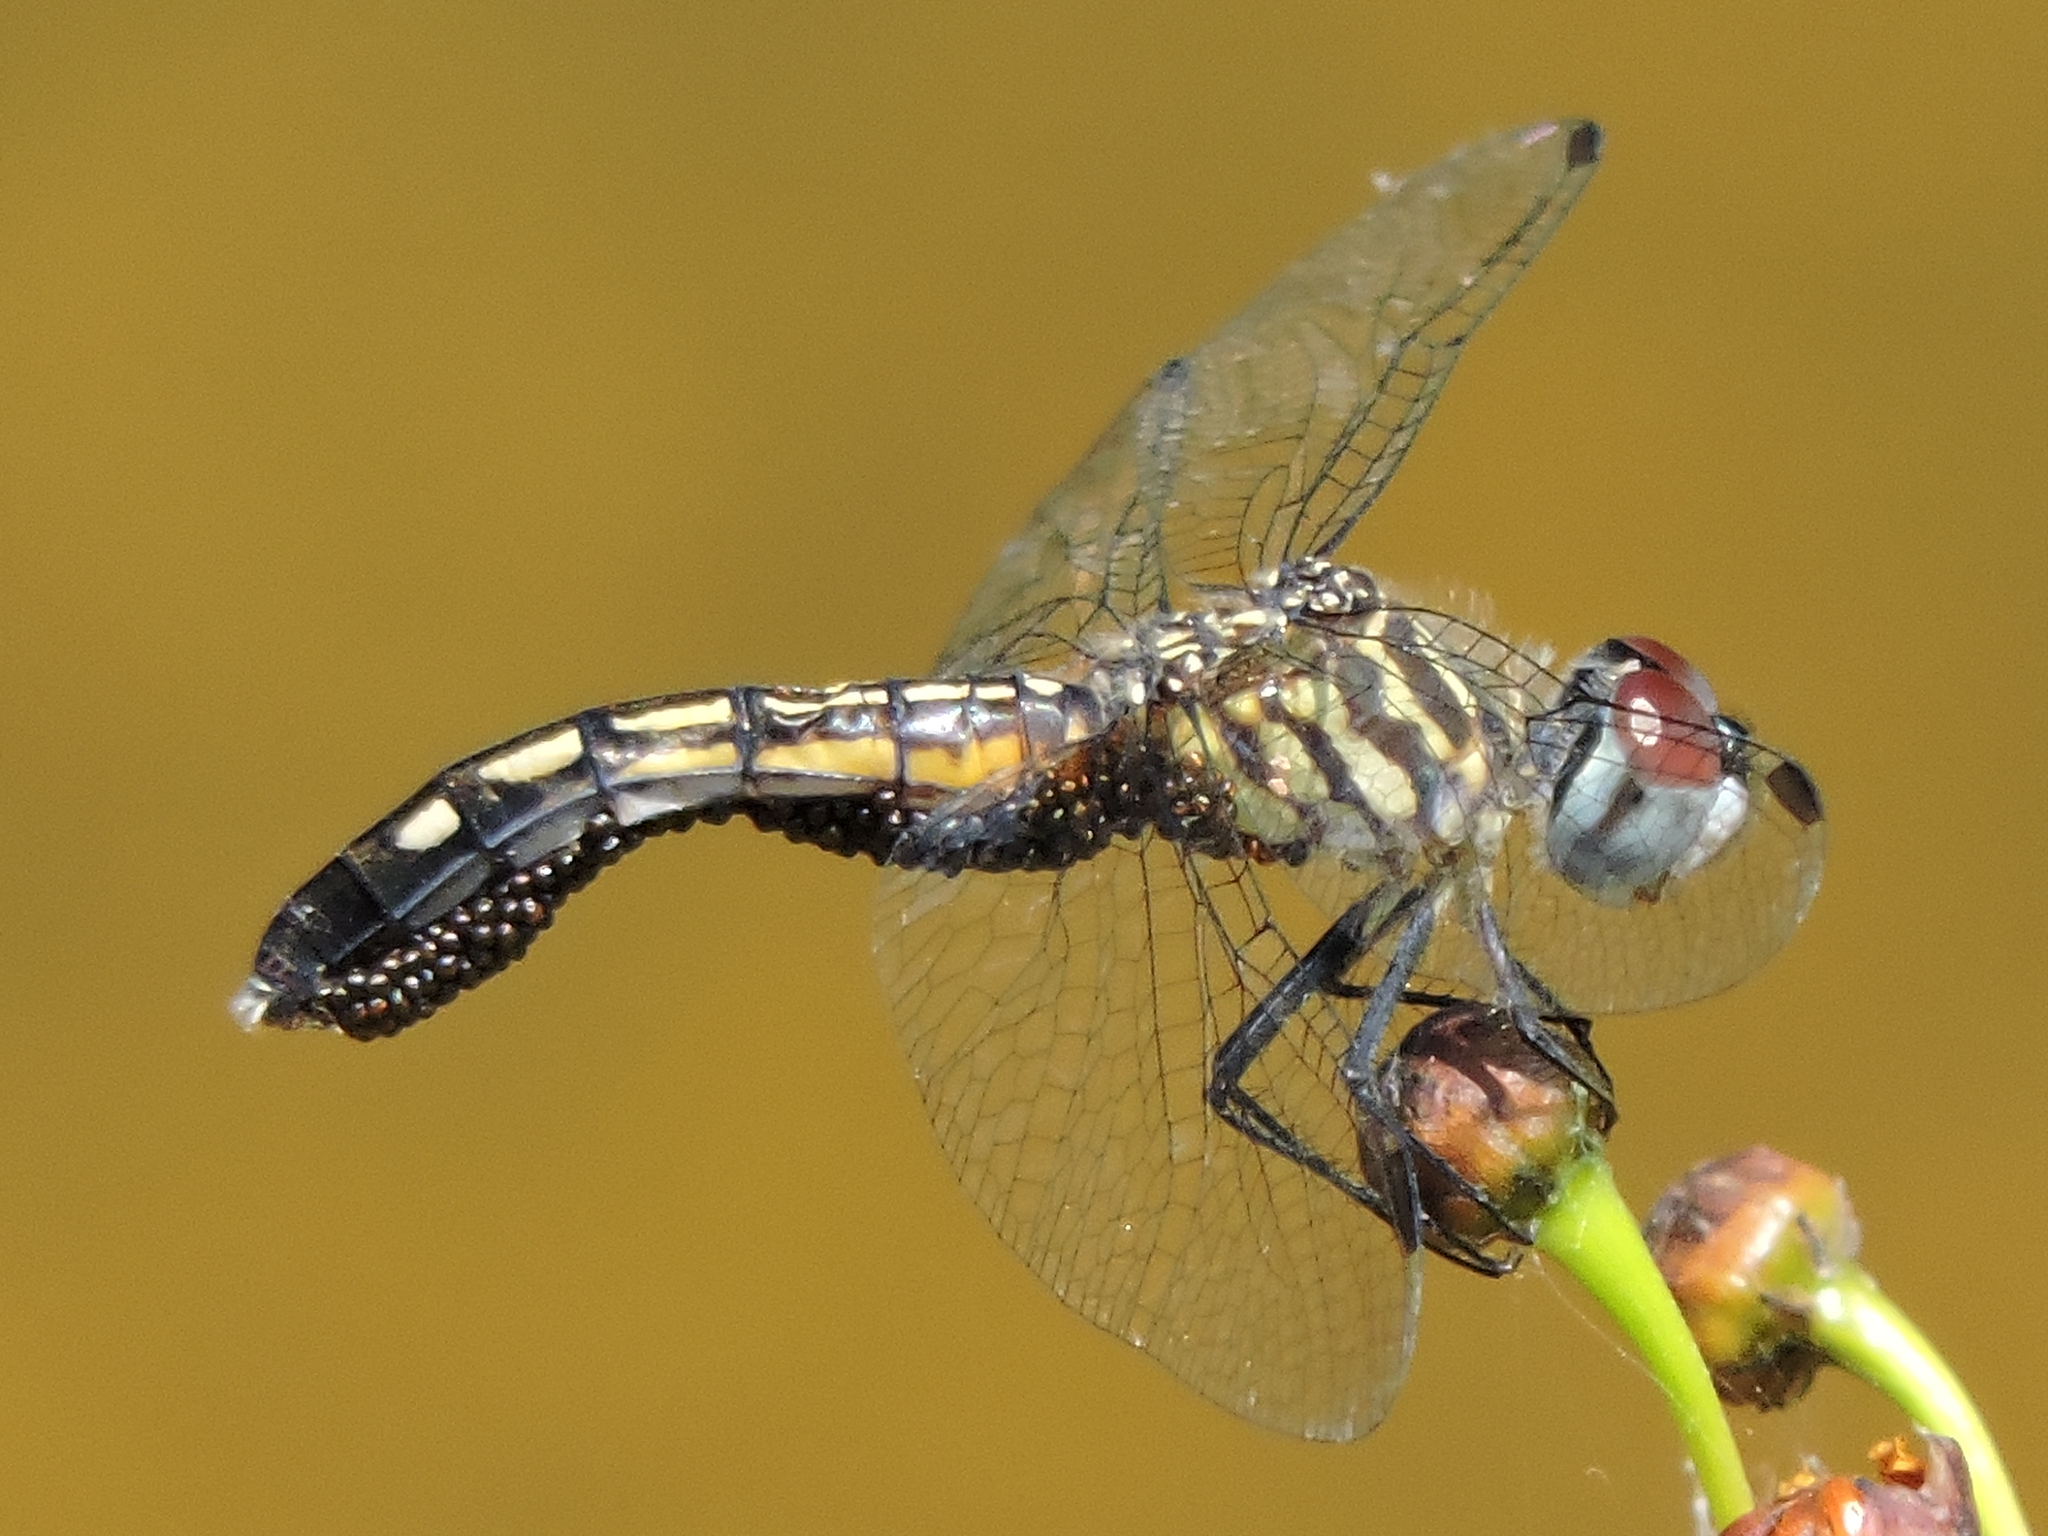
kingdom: Animalia
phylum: Arthropoda
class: Insecta
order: Odonata
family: Libellulidae
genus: Pachydiplax
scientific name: Pachydiplax longipennis
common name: Blue dasher
